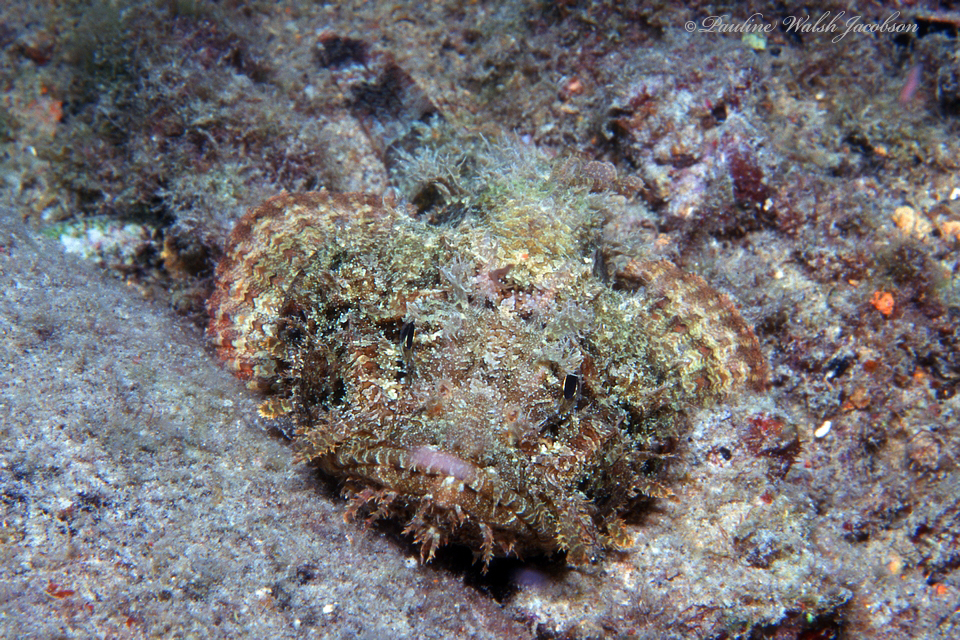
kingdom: Animalia
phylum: Chordata
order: Scorpaeniformes
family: Scorpaenidae
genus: Scorpaena
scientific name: Scorpaena plumieri
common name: Spotted scorpionfish
